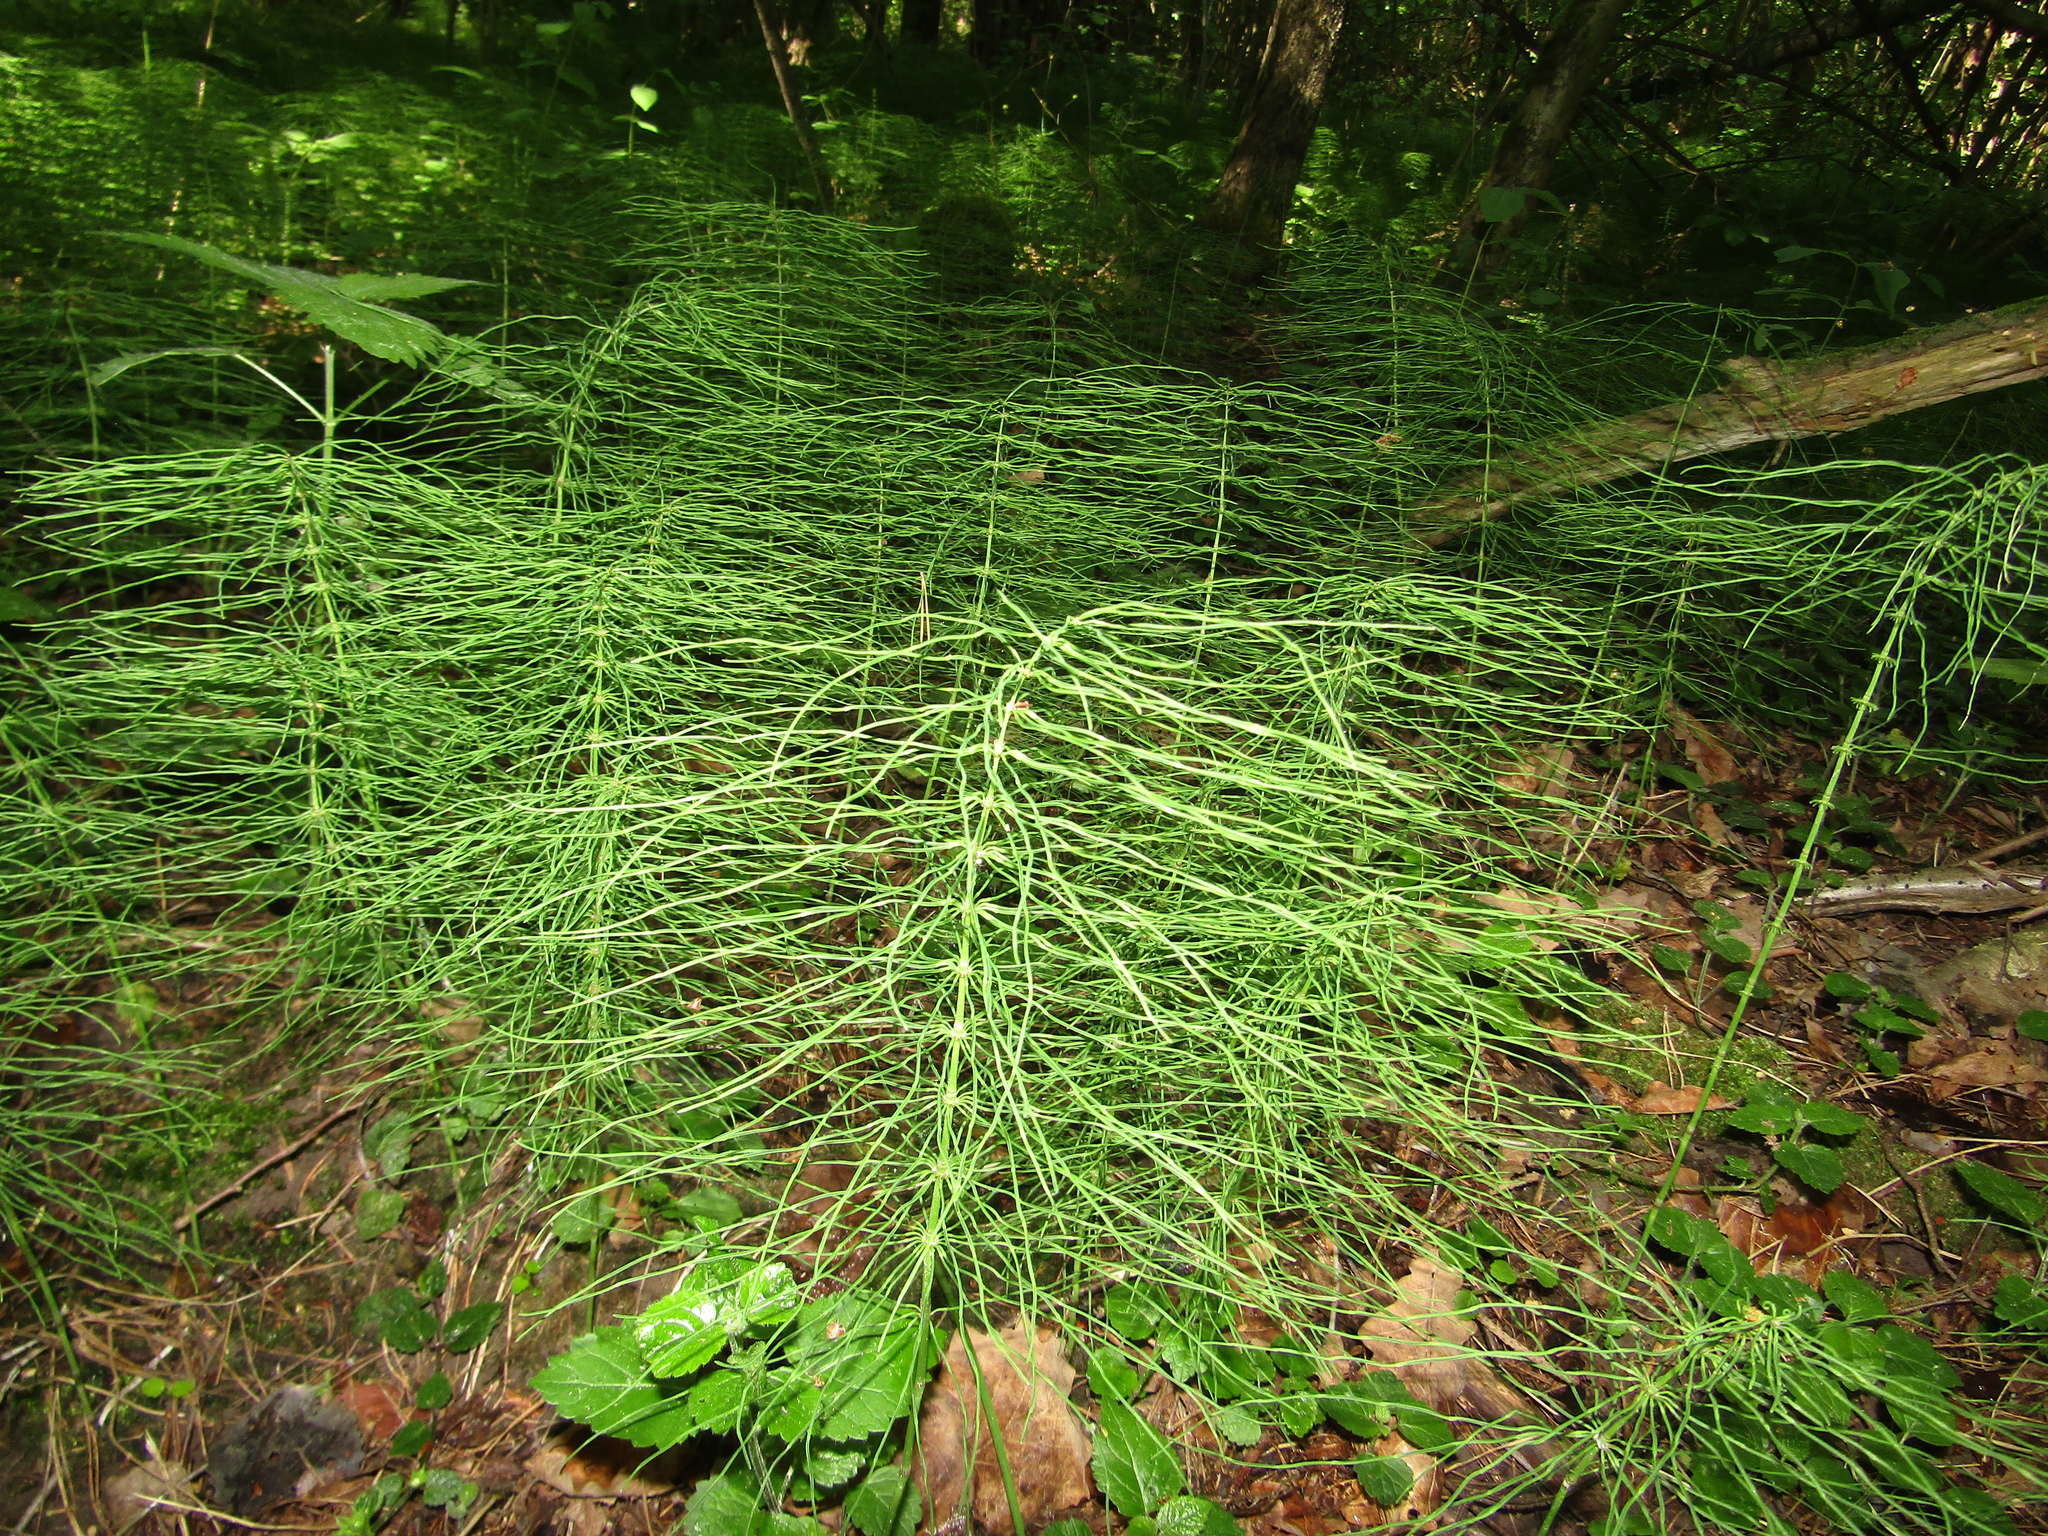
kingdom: Plantae
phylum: Tracheophyta
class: Polypodiopsida
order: Equisetales
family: Equisetaceae
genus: Equisetum
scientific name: Equisetum pratense
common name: Meadow horsetail
